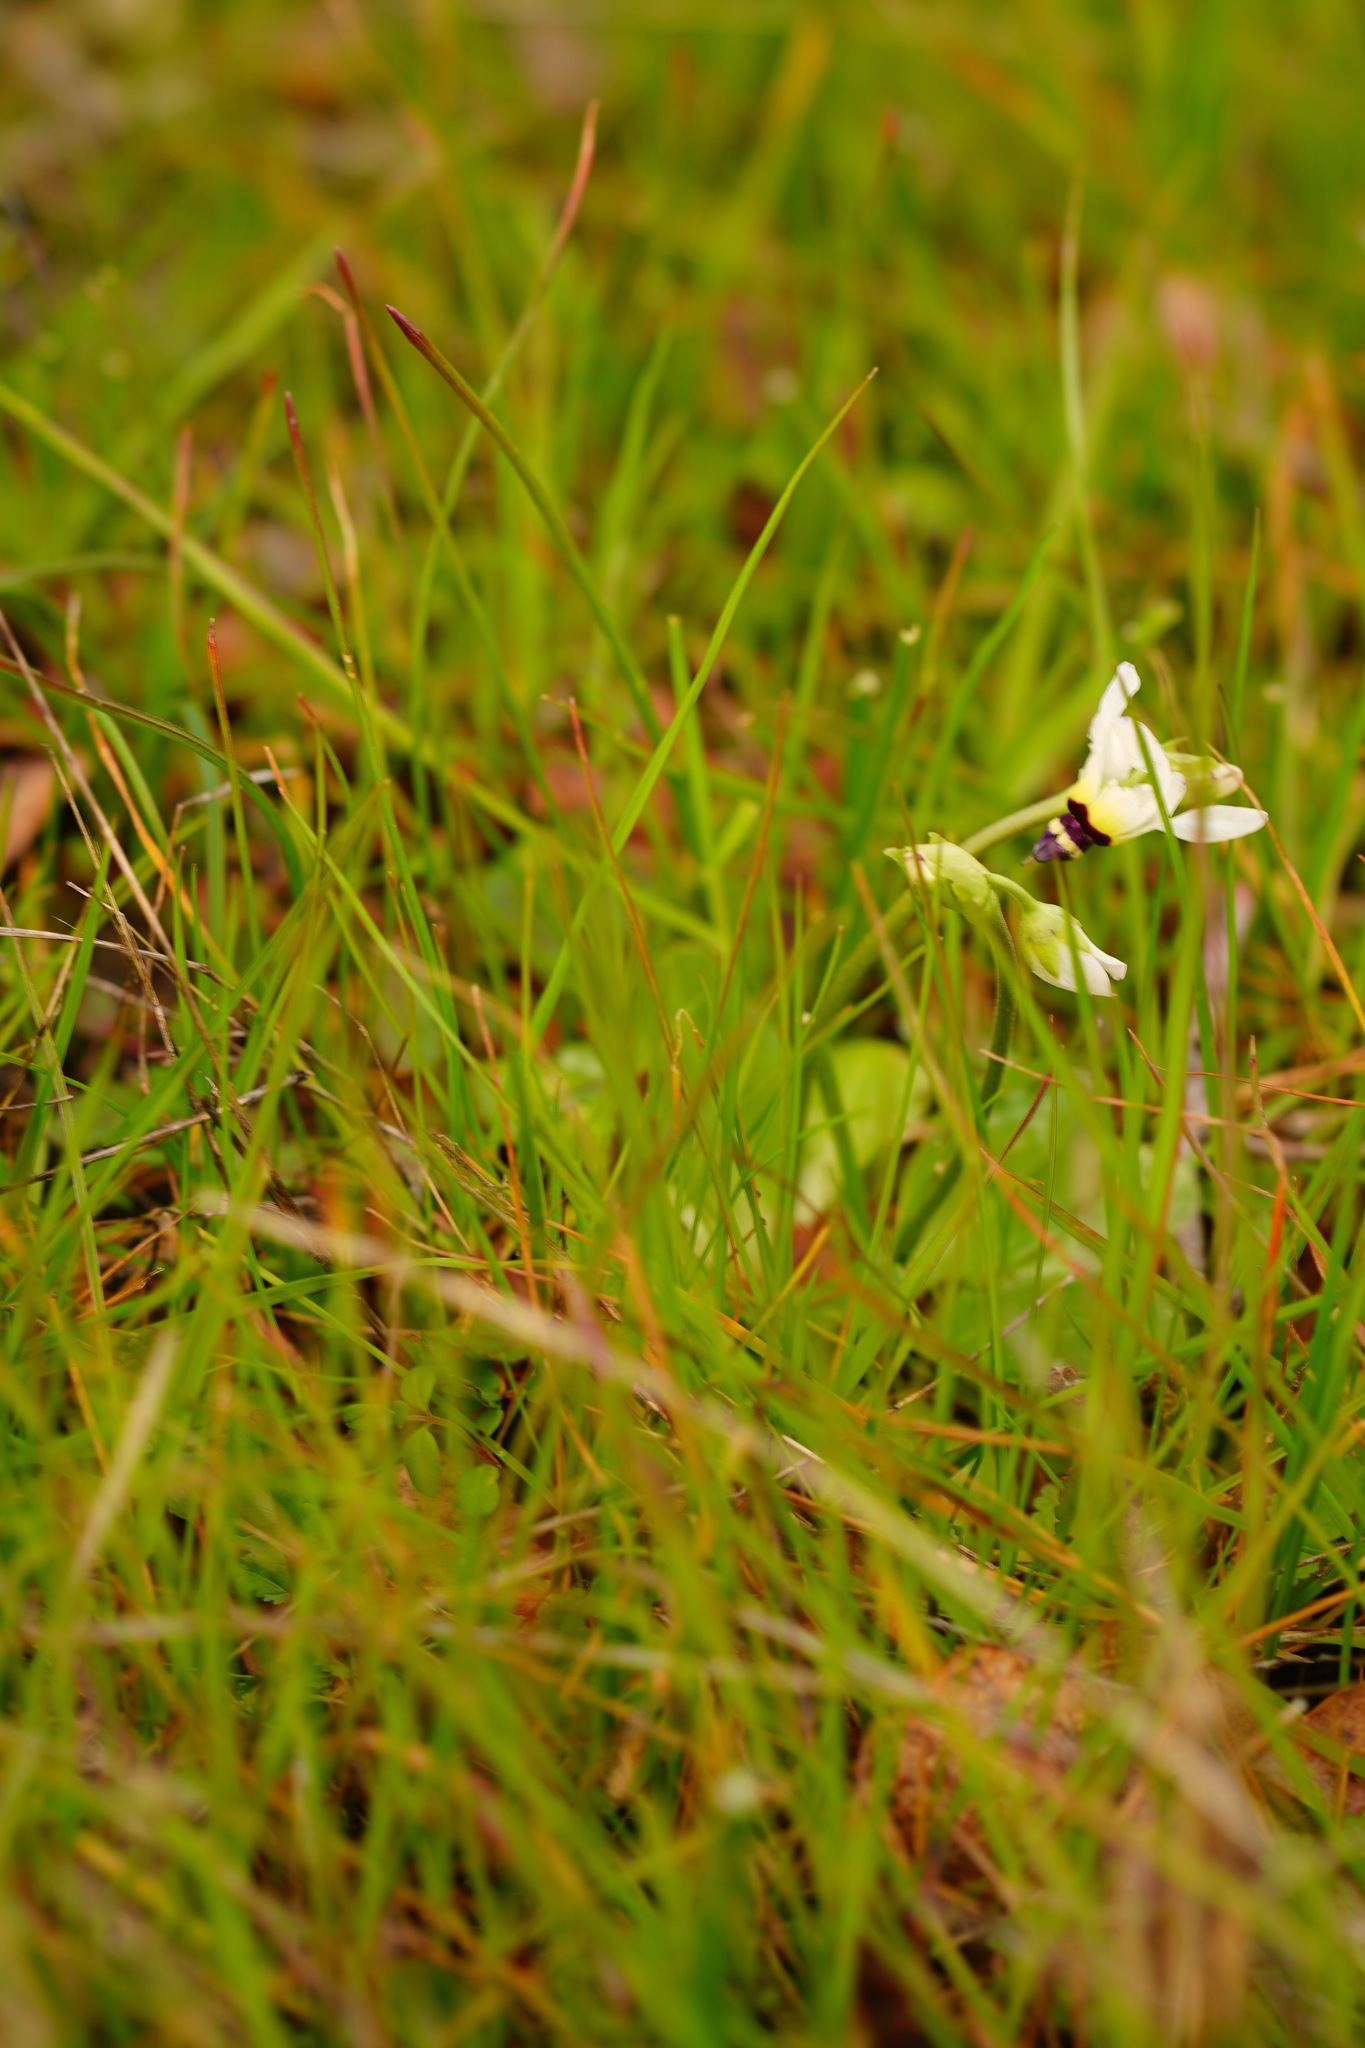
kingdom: Plantae
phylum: Tracheophyta
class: Magnoliopsida
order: Ericales
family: Primulaceae
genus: Dodecatheon
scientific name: Dodecatheon clevelandii
